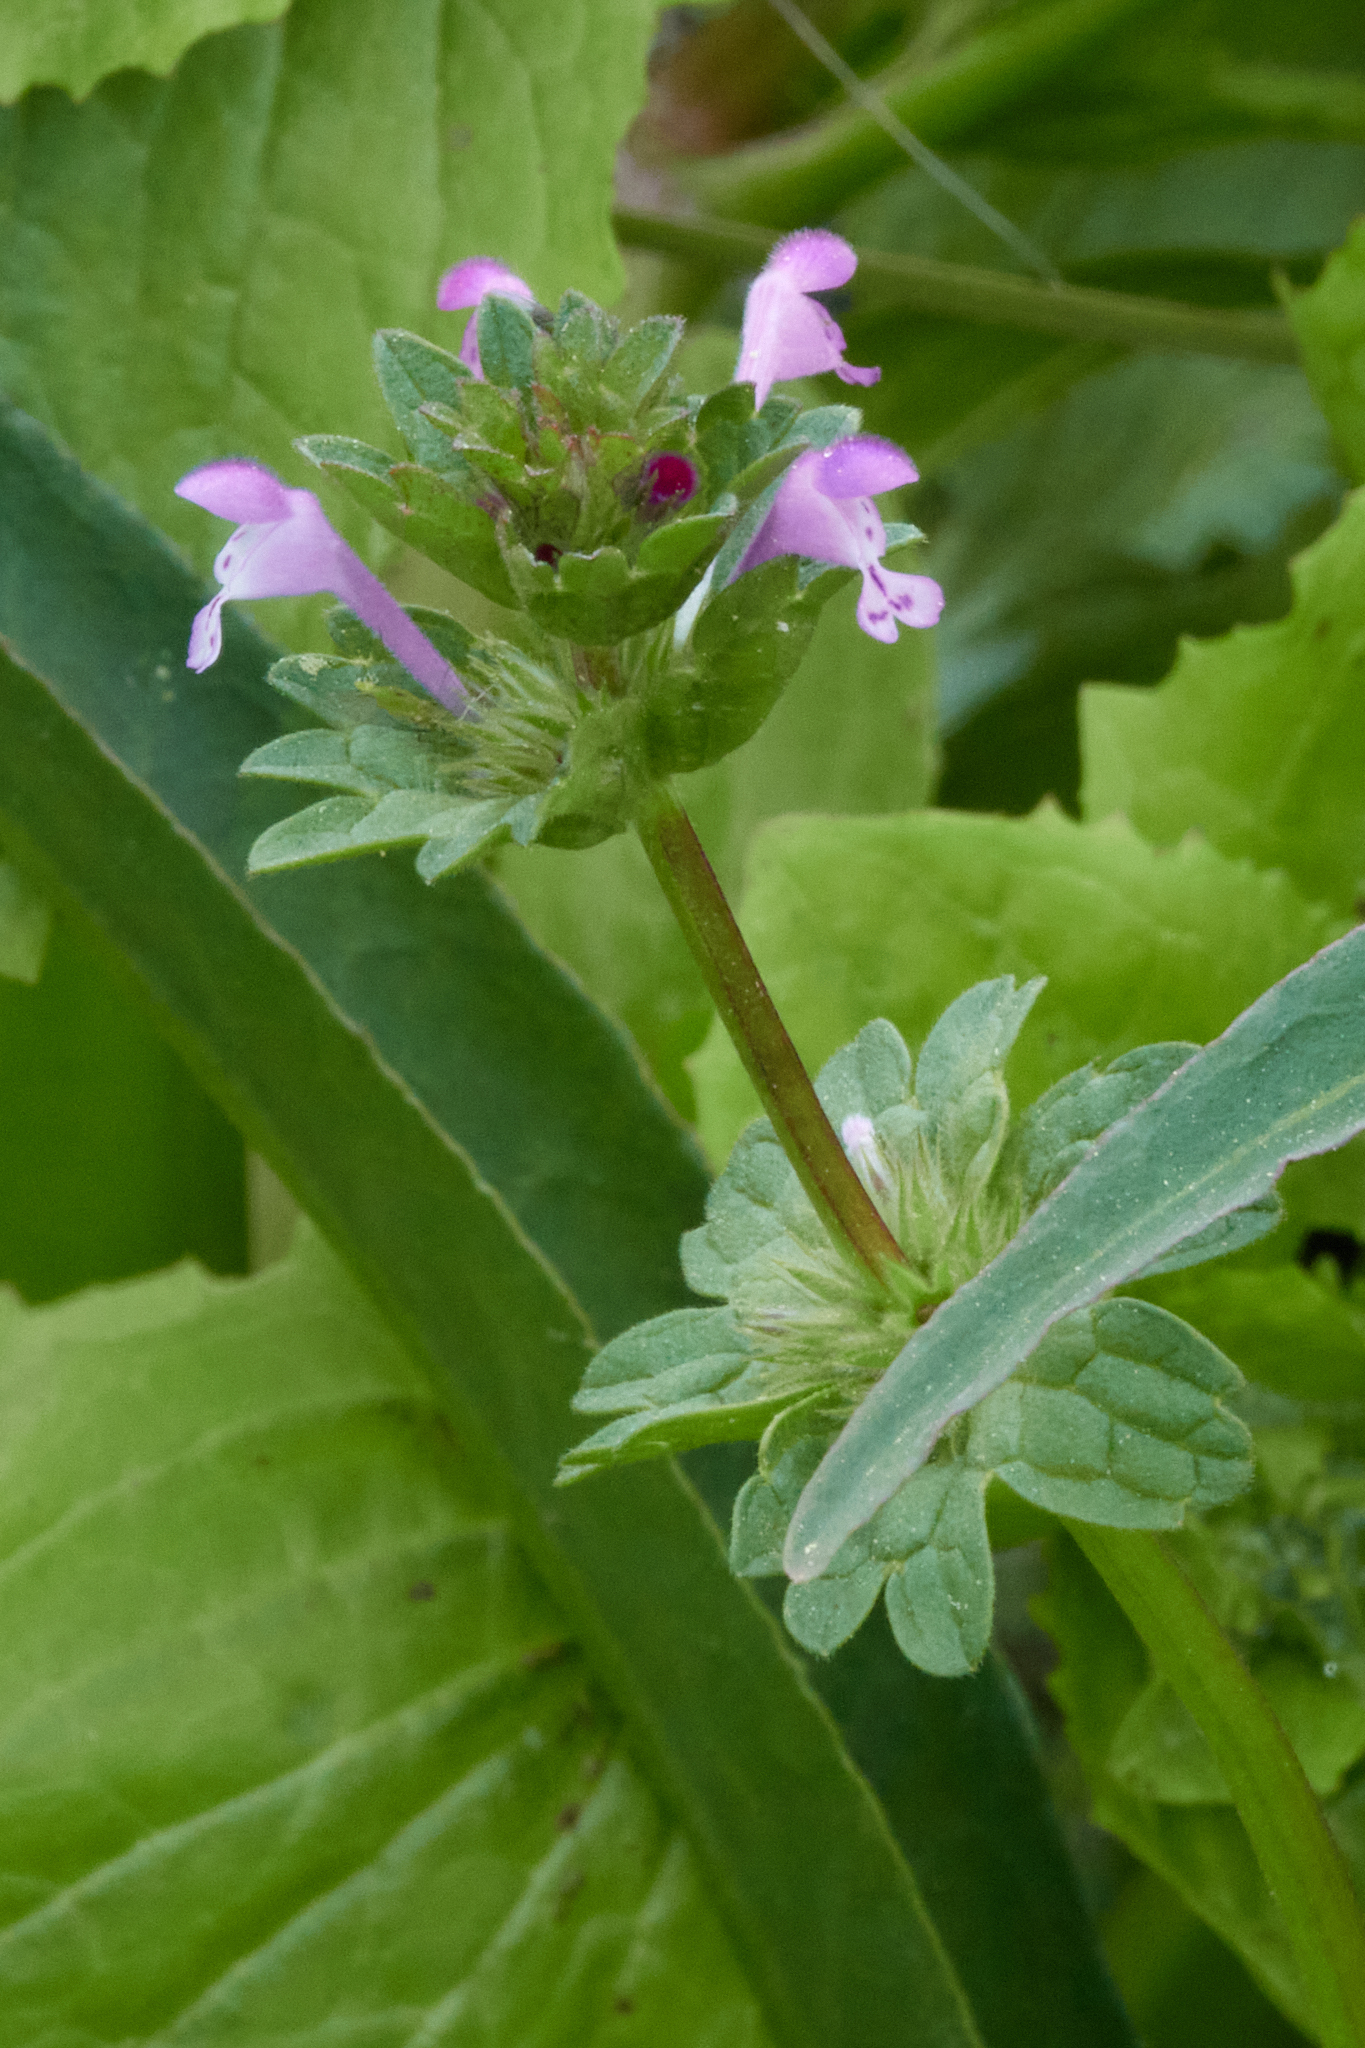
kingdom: Plantae
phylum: Tracheophyta
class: Magnoliopsida
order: Lamiales
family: Lamiaceae
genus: Lamium
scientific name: Lamium amplexicaule
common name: Henbit dead-nettle
